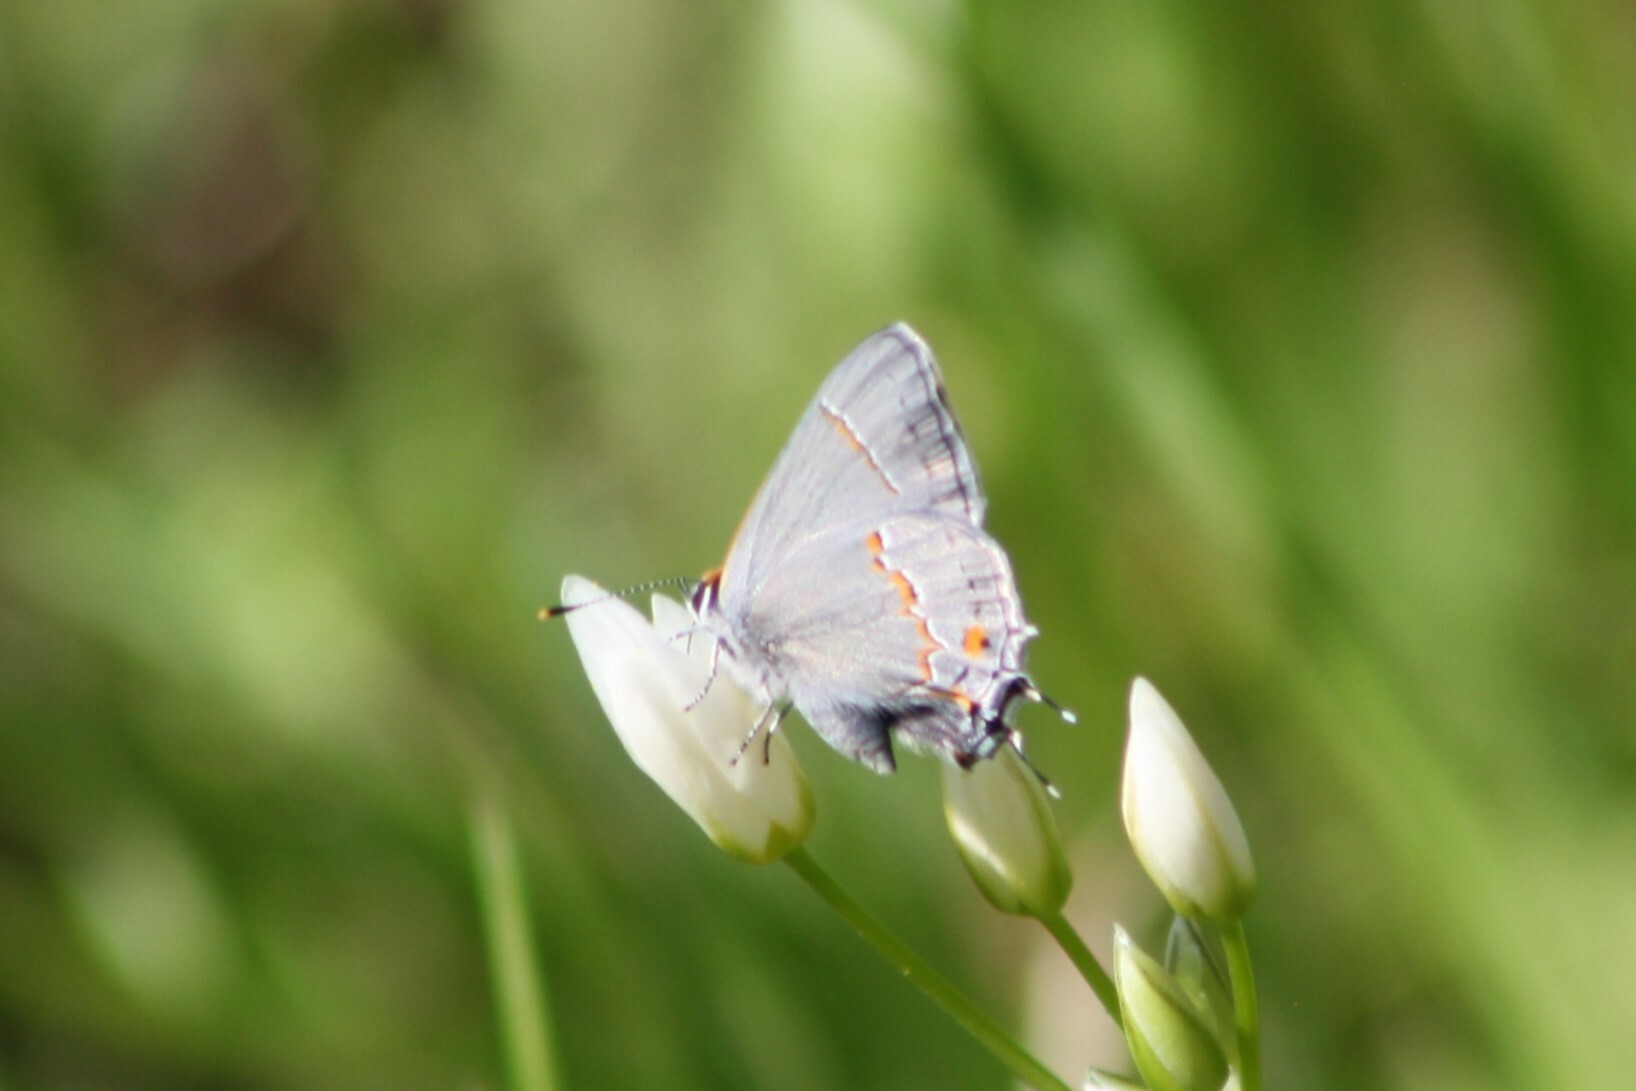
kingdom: Animalia
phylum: Arthropoda
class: Insecta
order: Lepidoptera
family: Lycaenidae
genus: Strymon
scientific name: Strymon melinus
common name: Gray hairstreak
